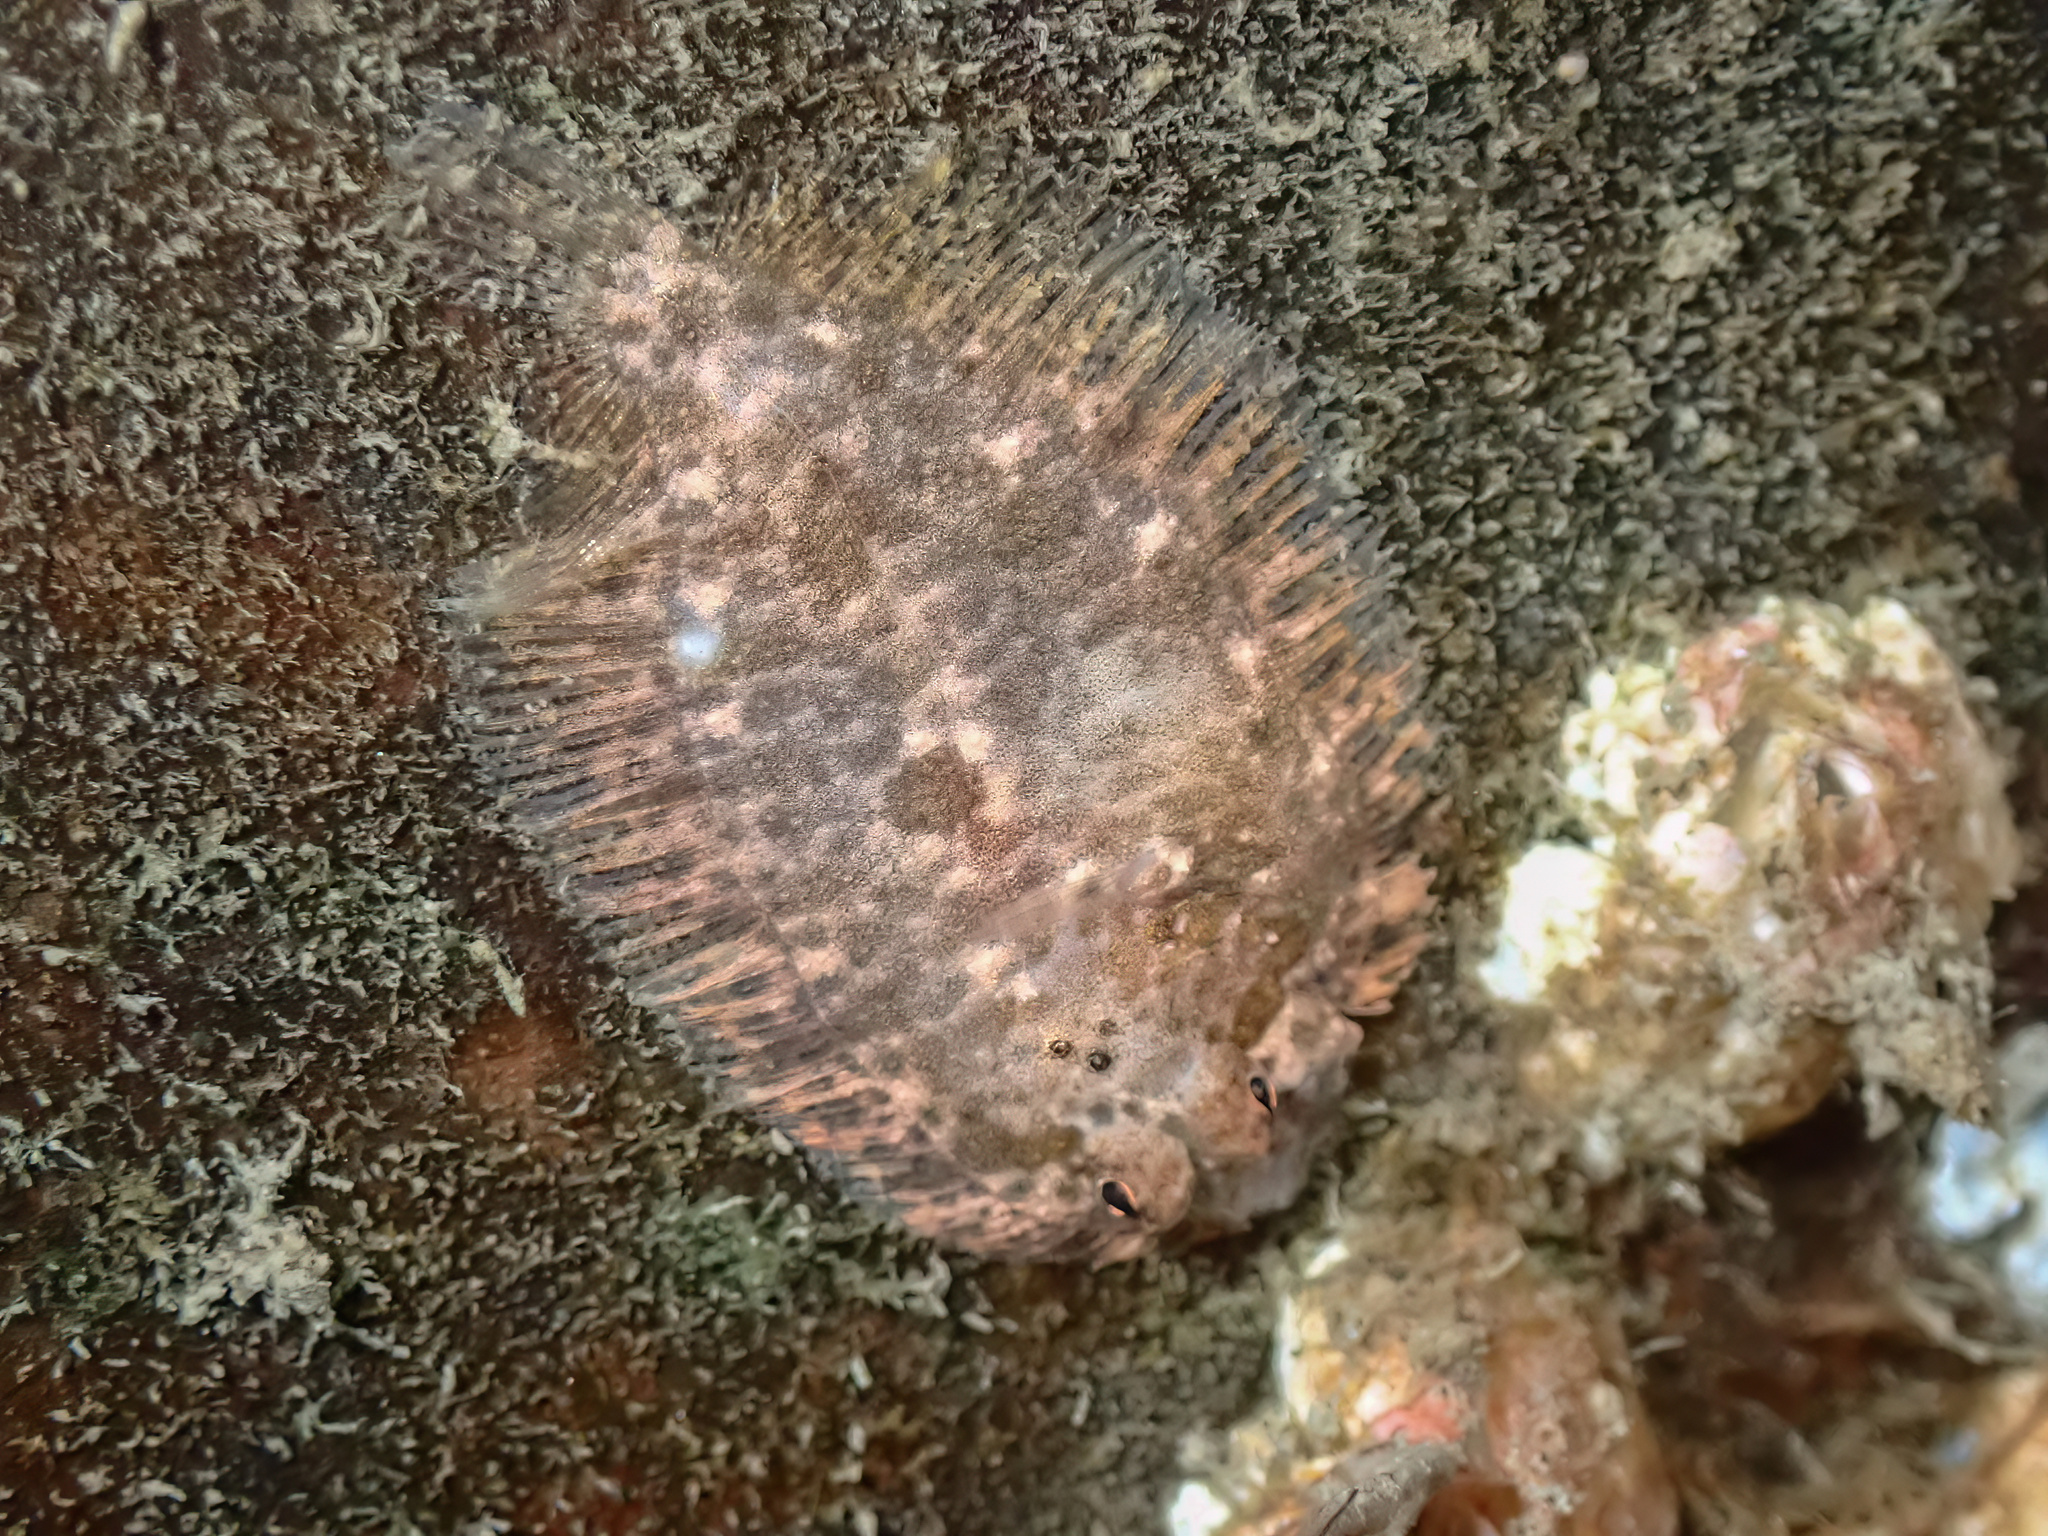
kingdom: Animalia
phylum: Chordata
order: Pleuronectiformes
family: Scophthalmidae
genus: Zeugopterus
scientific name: Zeugopterus punctatus
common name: Topknot
